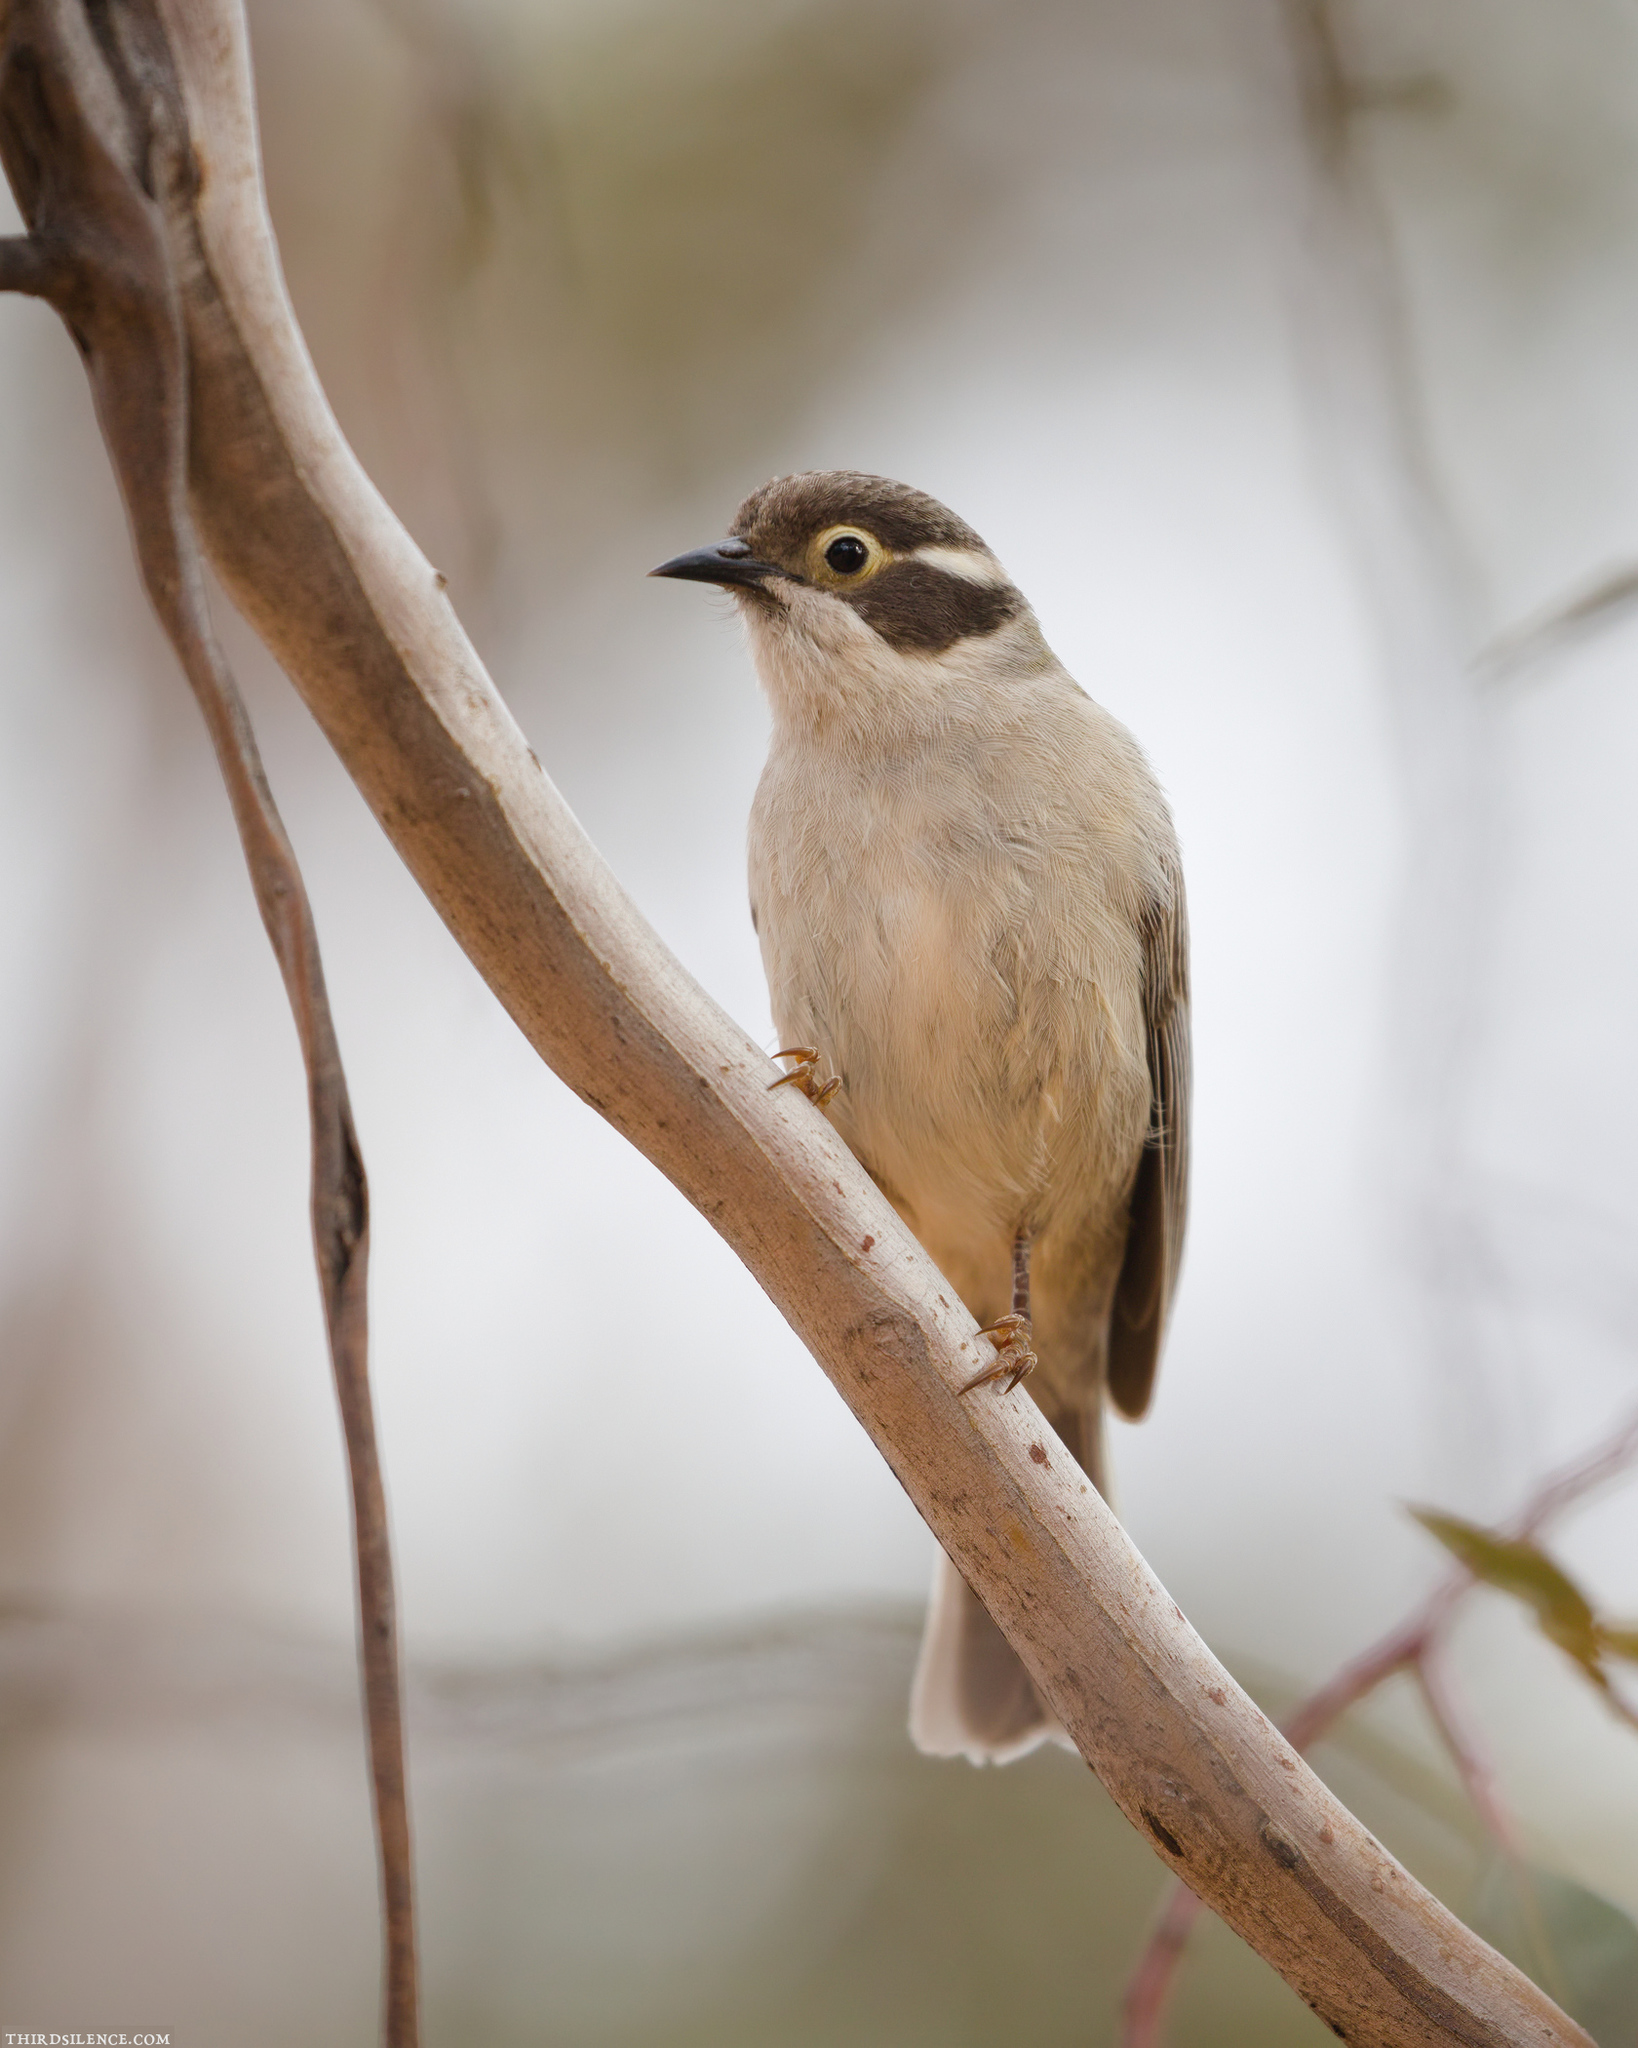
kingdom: Animalia
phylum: Chordata
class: Aves
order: Passeriformes
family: Meliphagidae
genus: Melithreptus
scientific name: Melithreptus brevirostris
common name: Brown-headed honeyeater
